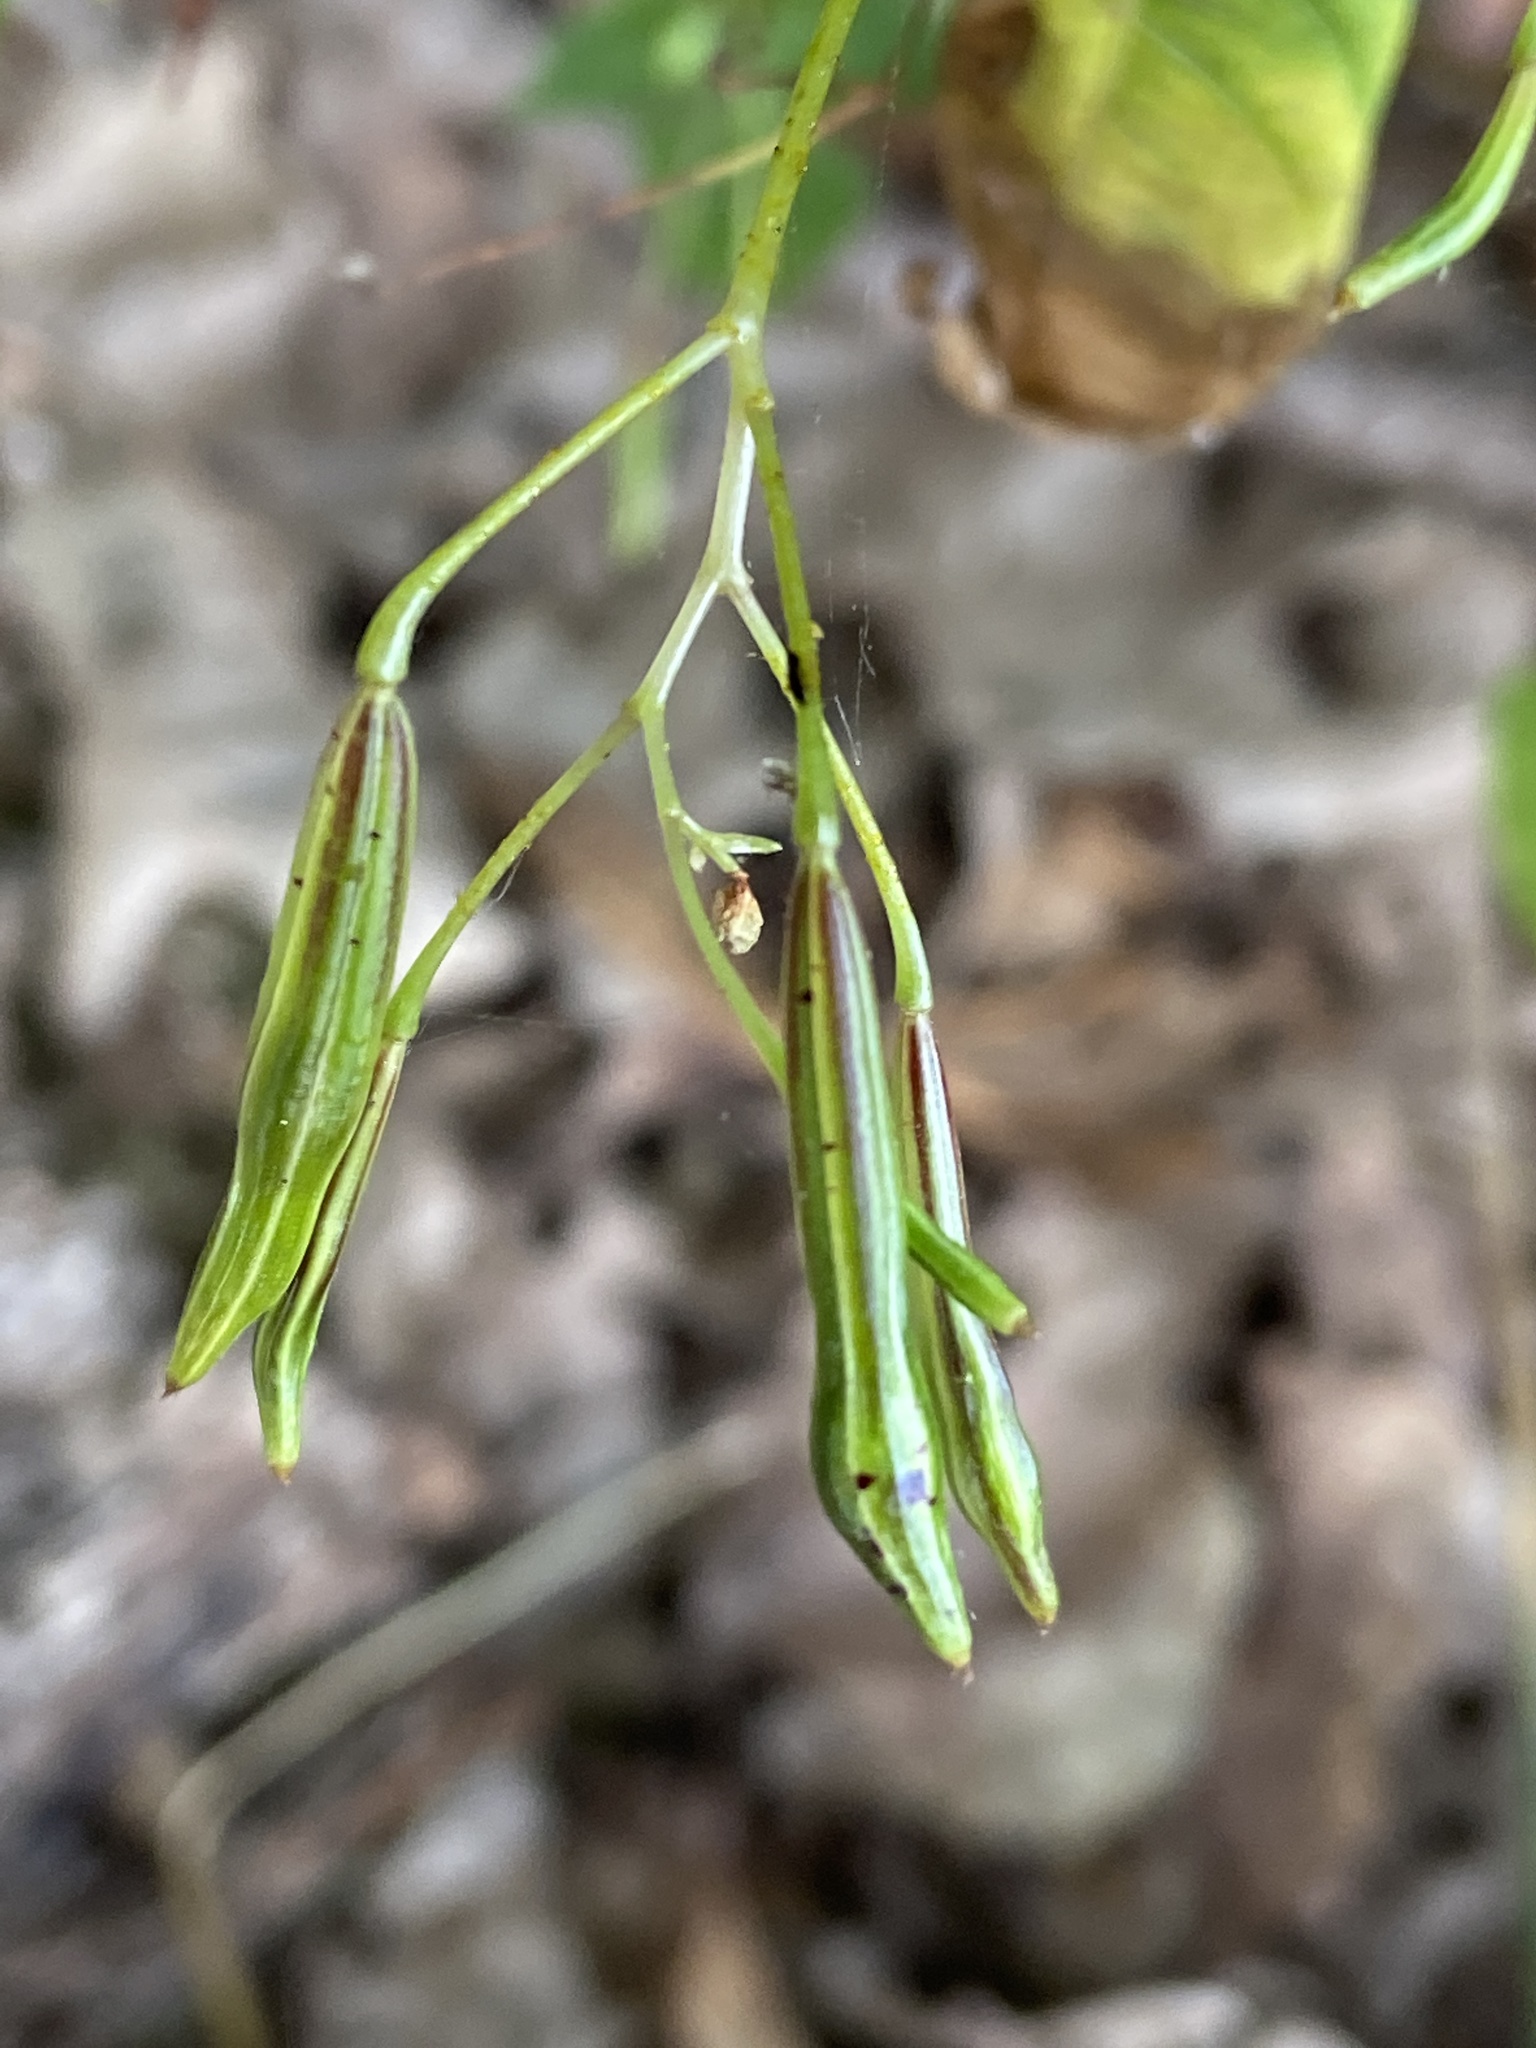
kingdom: Plantae
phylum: Tracheophyta
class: Magnoliopsida
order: Ericales
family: Balsaminaceae
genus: Impatiens
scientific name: Impatiens parviflora
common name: Small balsam
